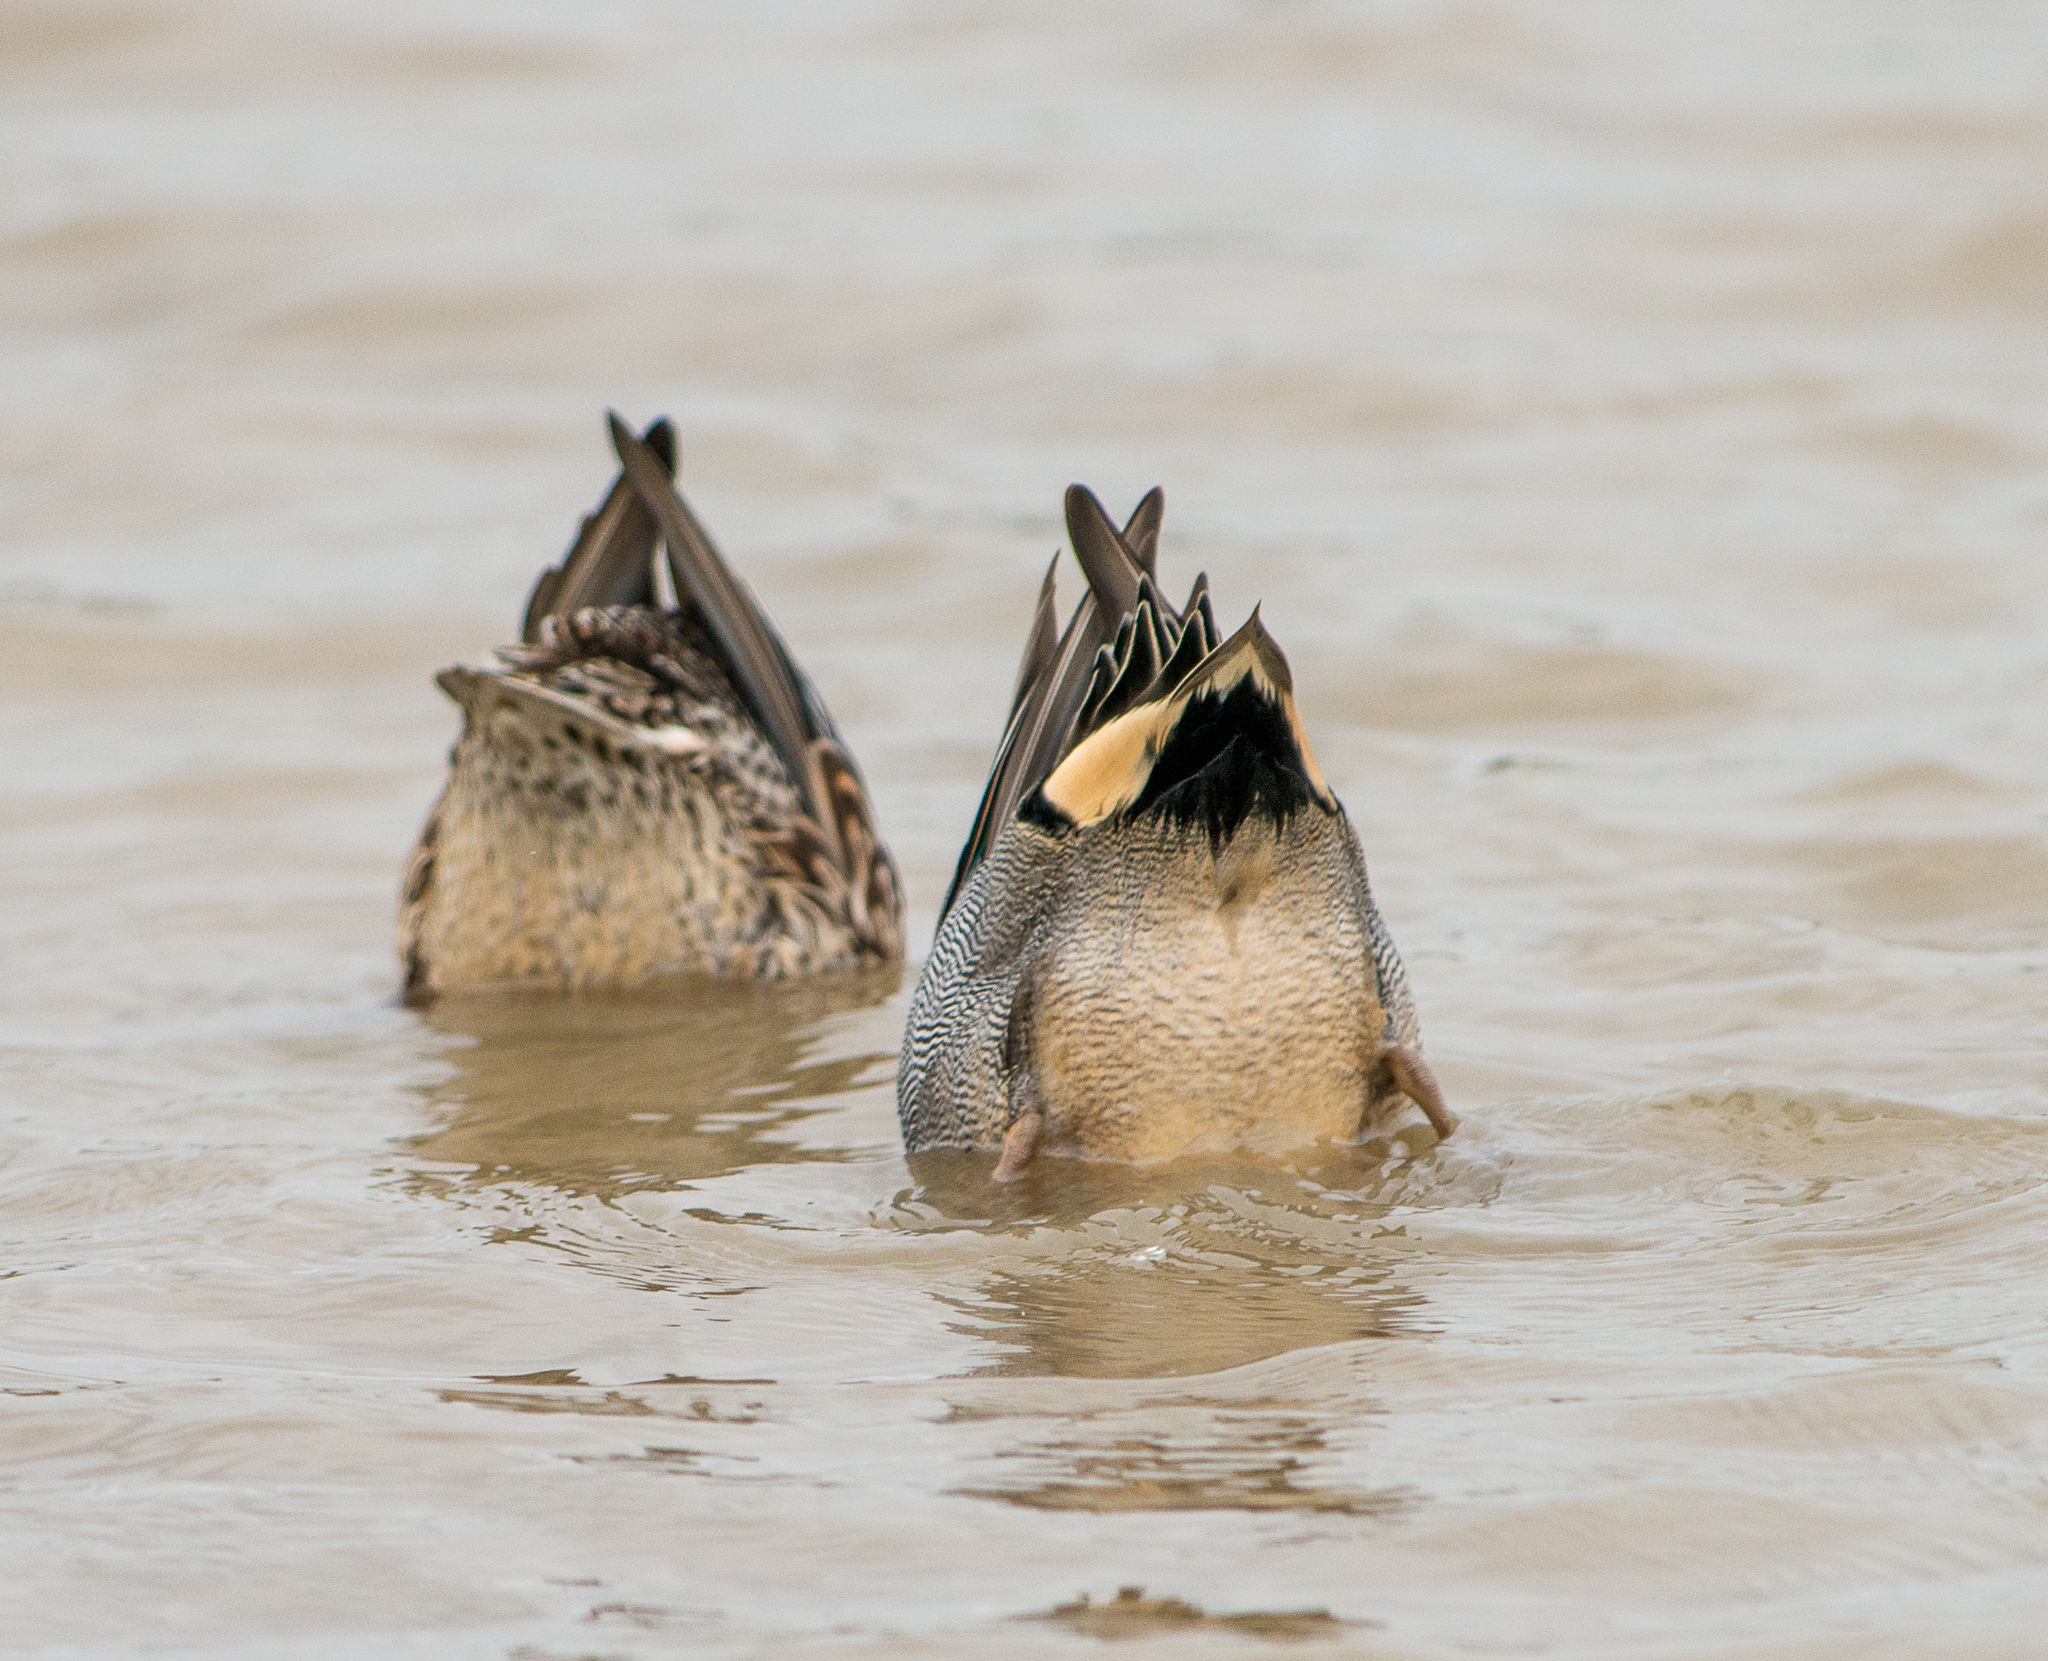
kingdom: Animalia
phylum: Chordata
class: Aves
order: Anseriformes
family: Anatidae
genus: Anas
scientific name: Anas crecca
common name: Eurasian teal
